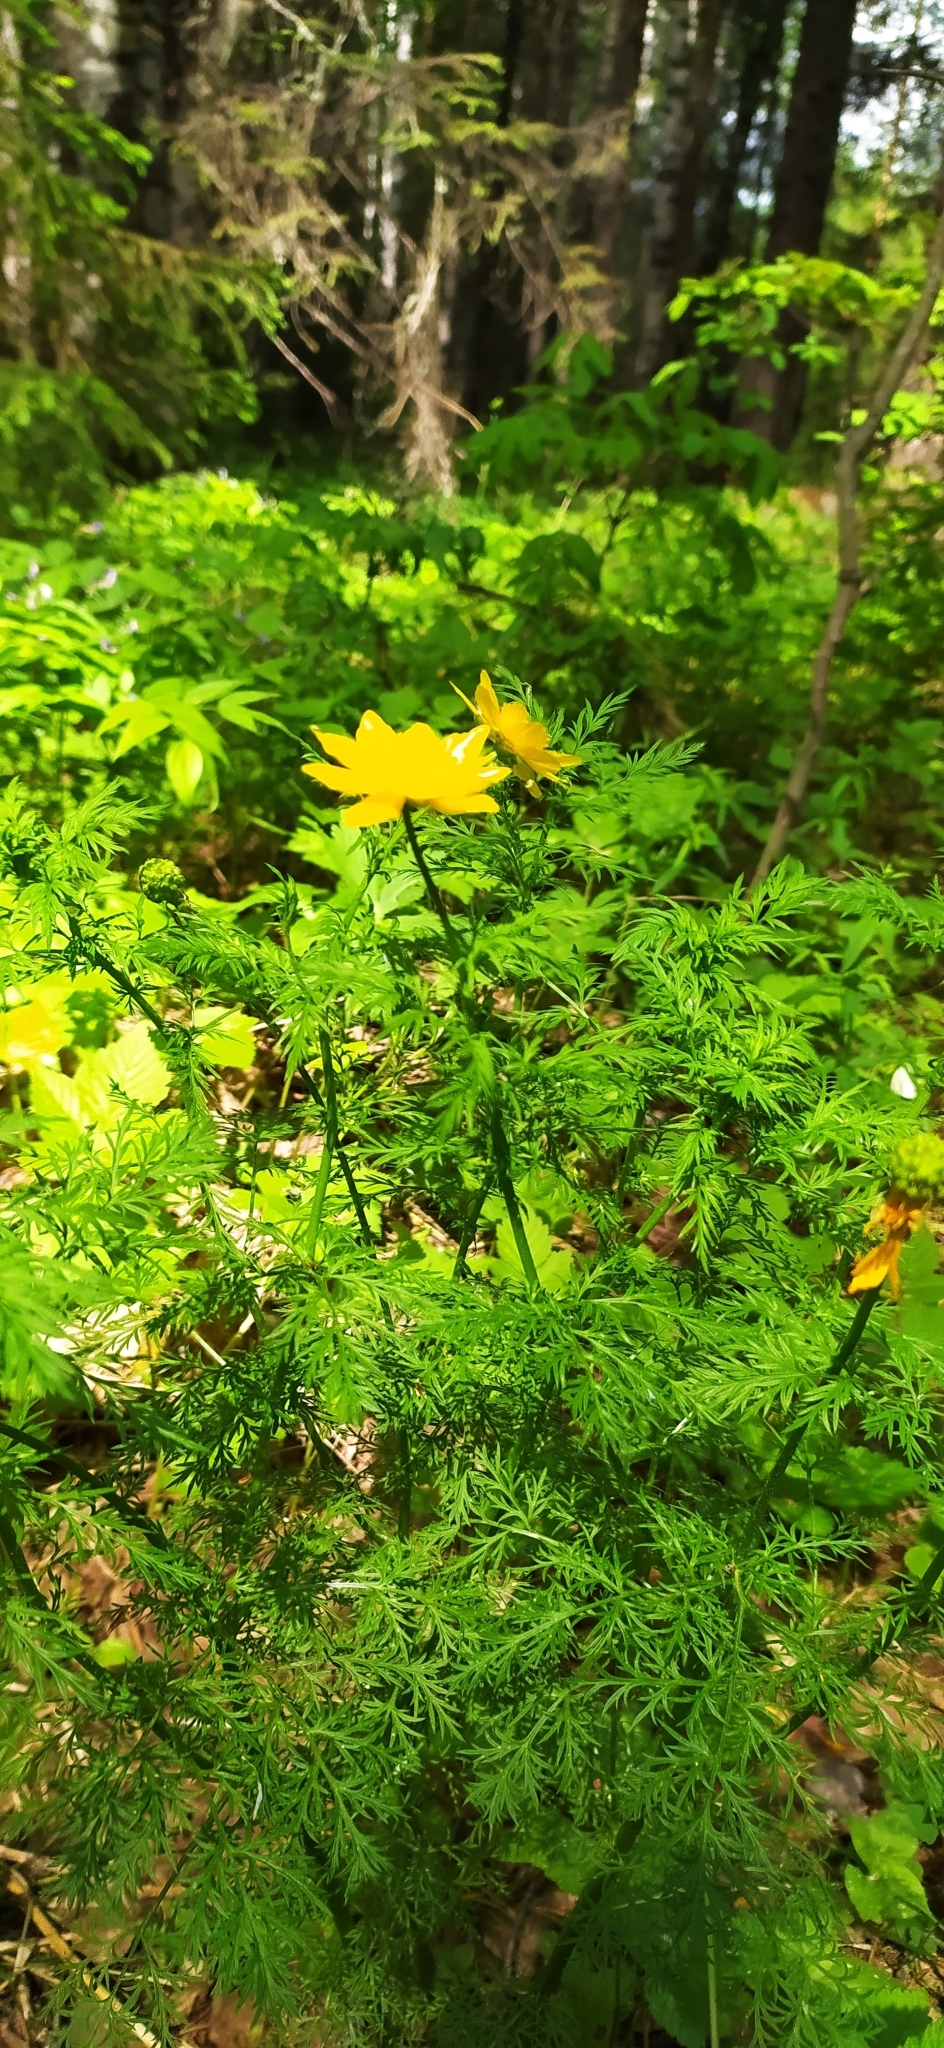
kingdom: Plantae
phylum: Tracheophyta
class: Magnoliopsida
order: Ranunculales
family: Ranunculaceae
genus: Adonis
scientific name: Adonis
